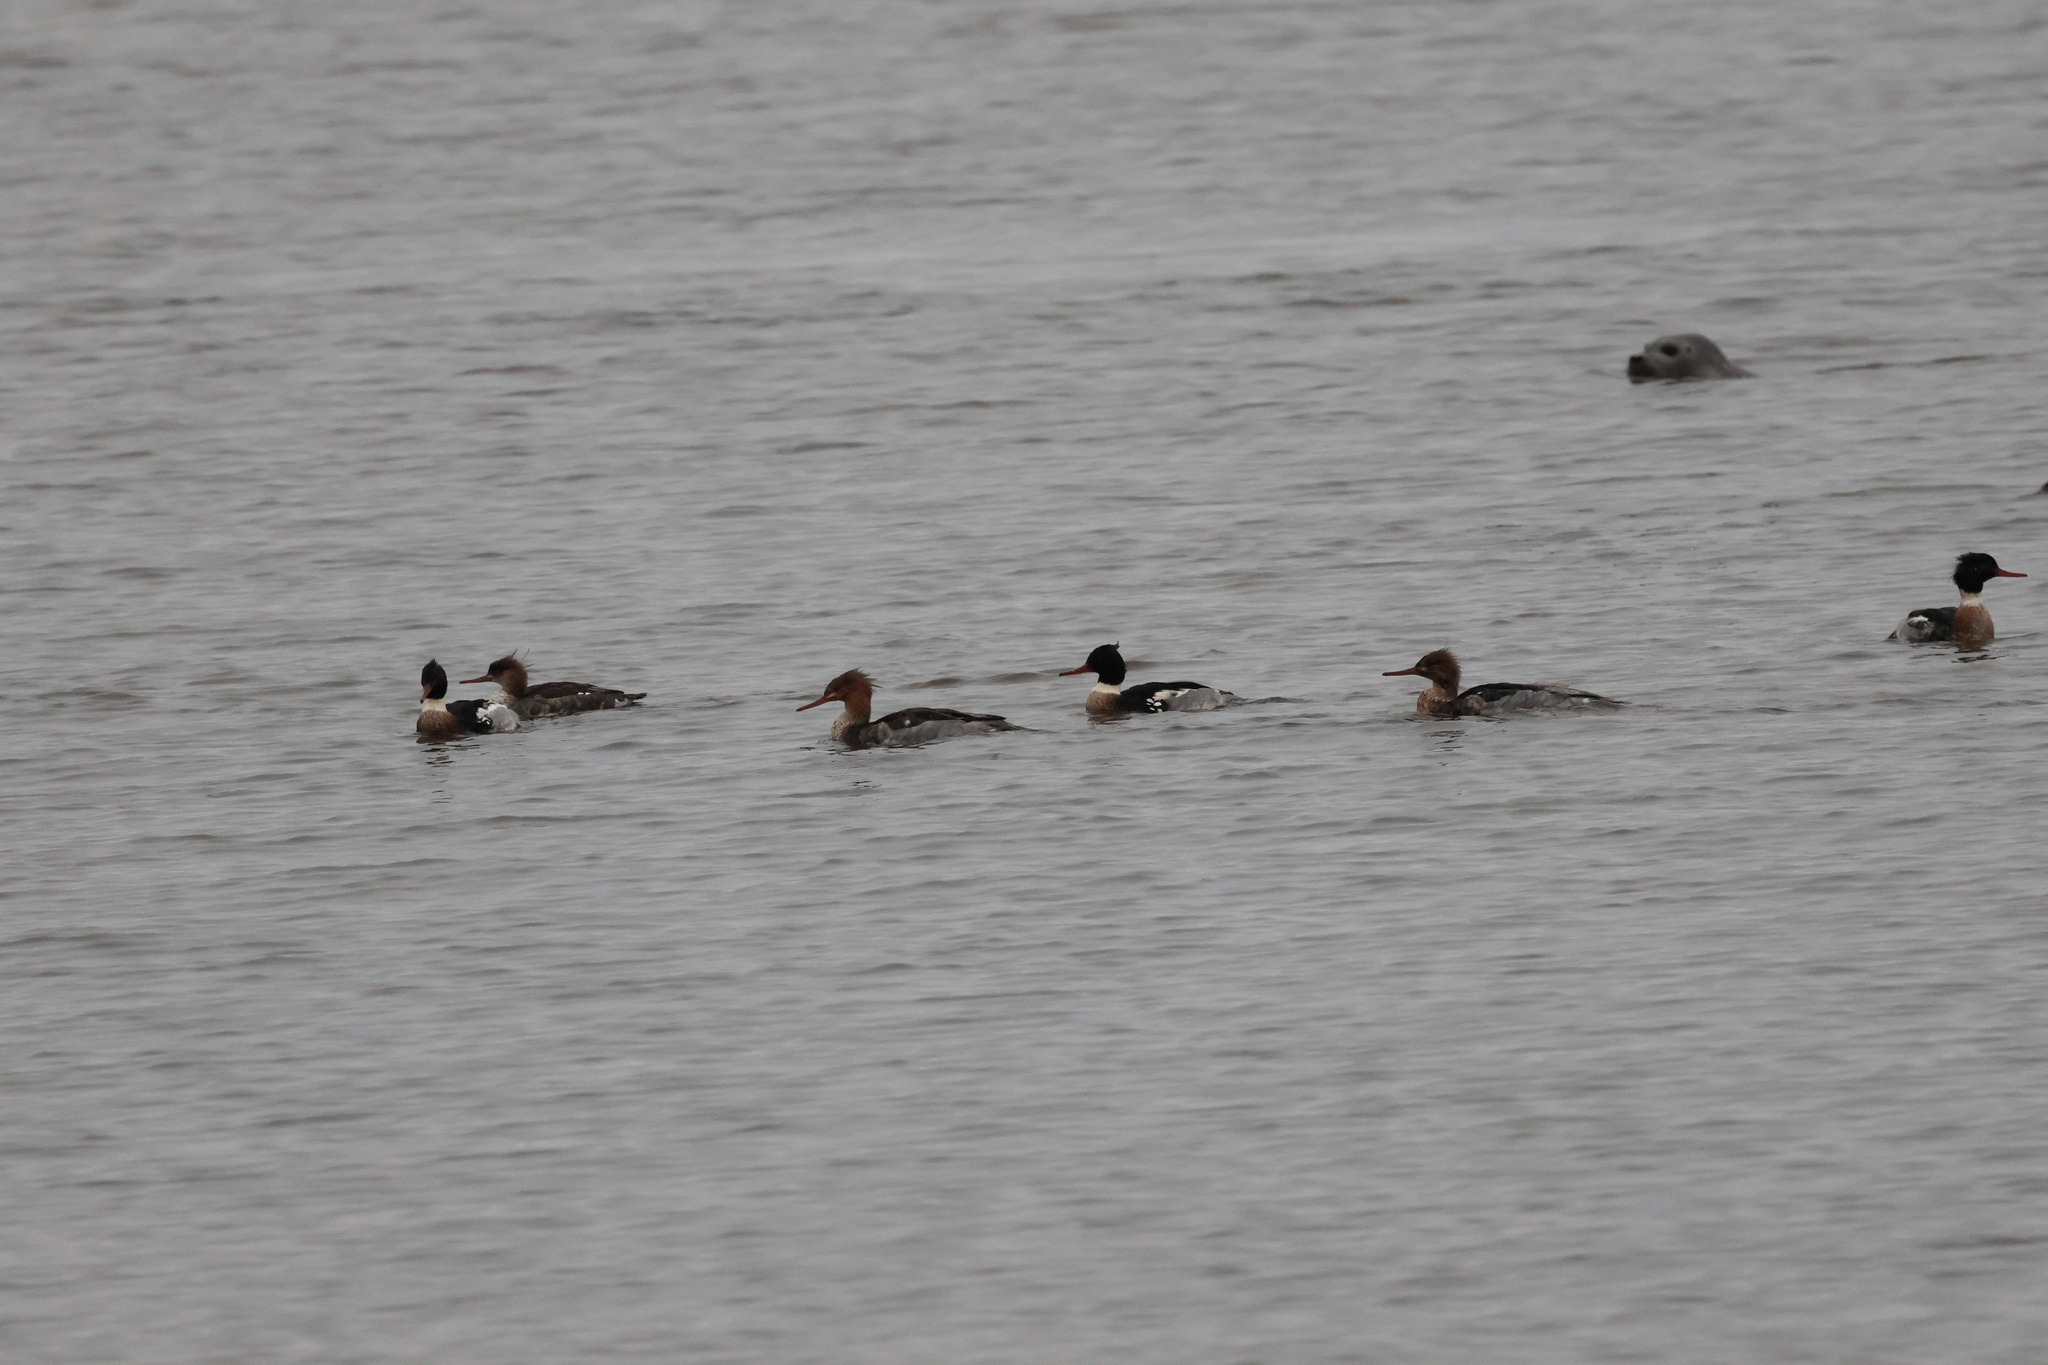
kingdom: Animalia
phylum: Chordata
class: Aves
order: Anseriformes
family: Anatidae
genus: Mergus
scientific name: Mergus serrator
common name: Red-breasted merganser
